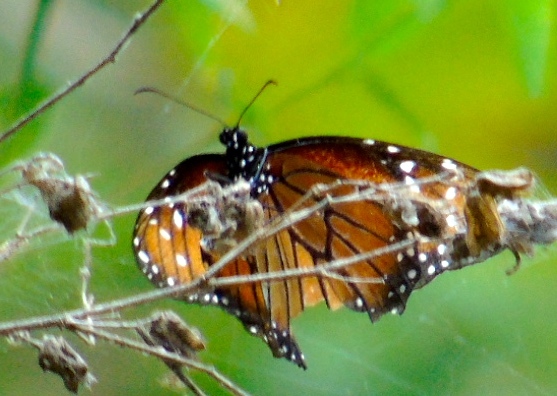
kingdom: Animalia
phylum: Arthropoda
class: Insecta
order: Lepidoptera
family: Nymphalidae
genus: Danaus
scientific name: Danaus eresimus
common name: Soldier
